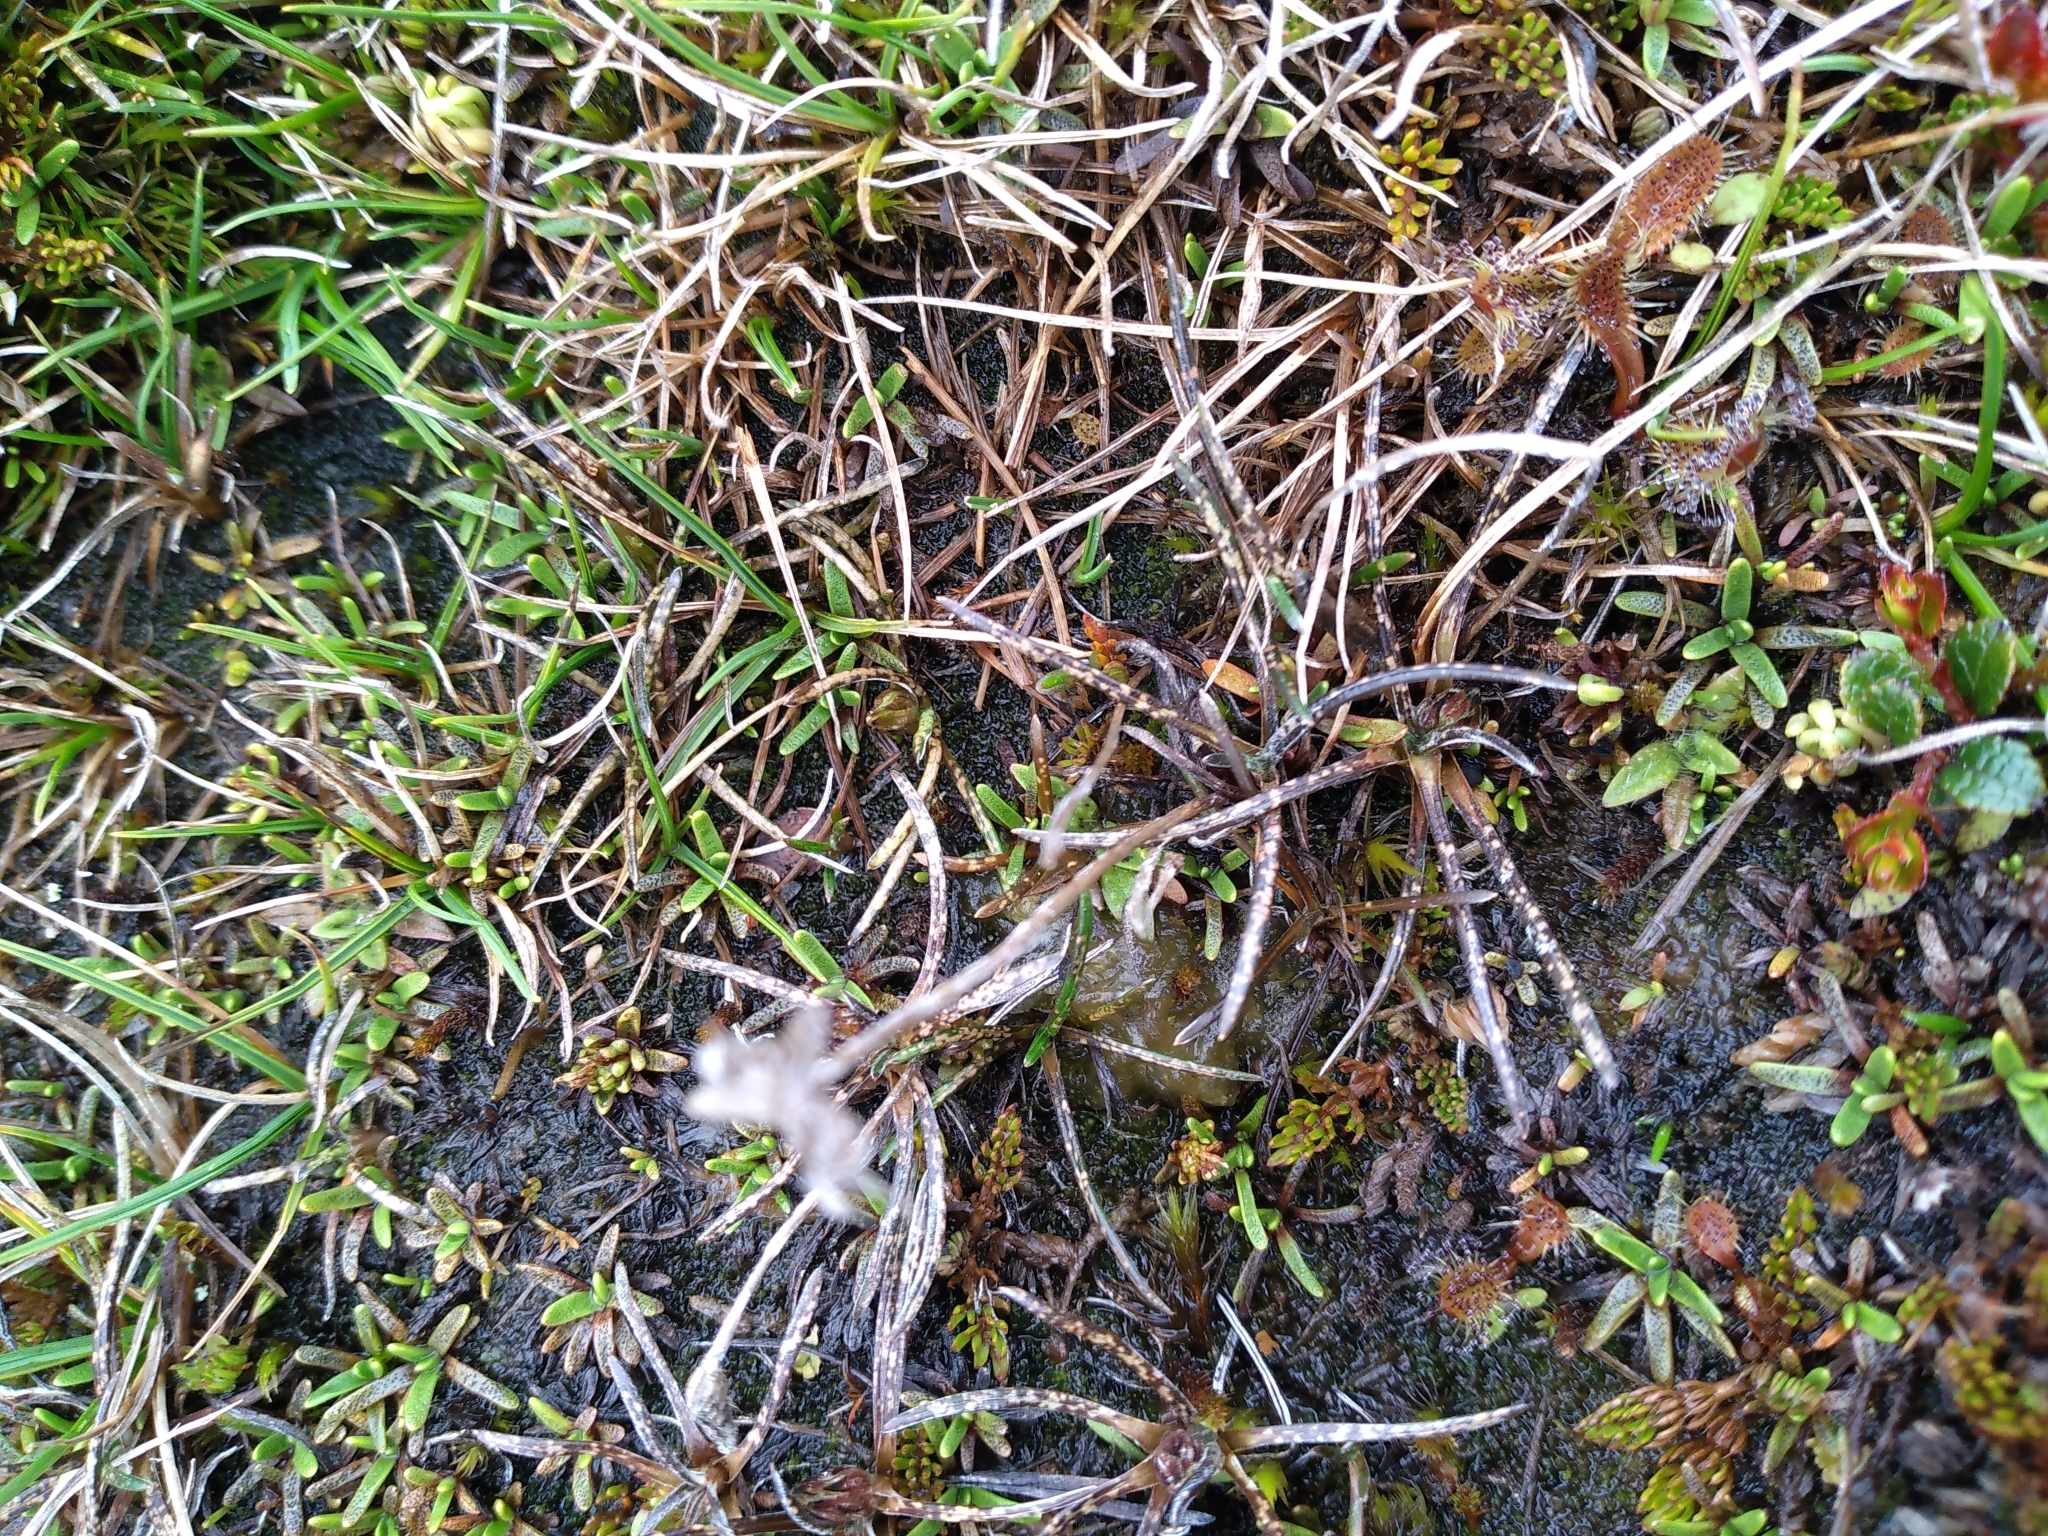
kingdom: Plantae
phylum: Tracheophyta
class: Magnoliopsida
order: Asterales
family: Asteraceae
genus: Celmisia
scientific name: Celmisia alpina
